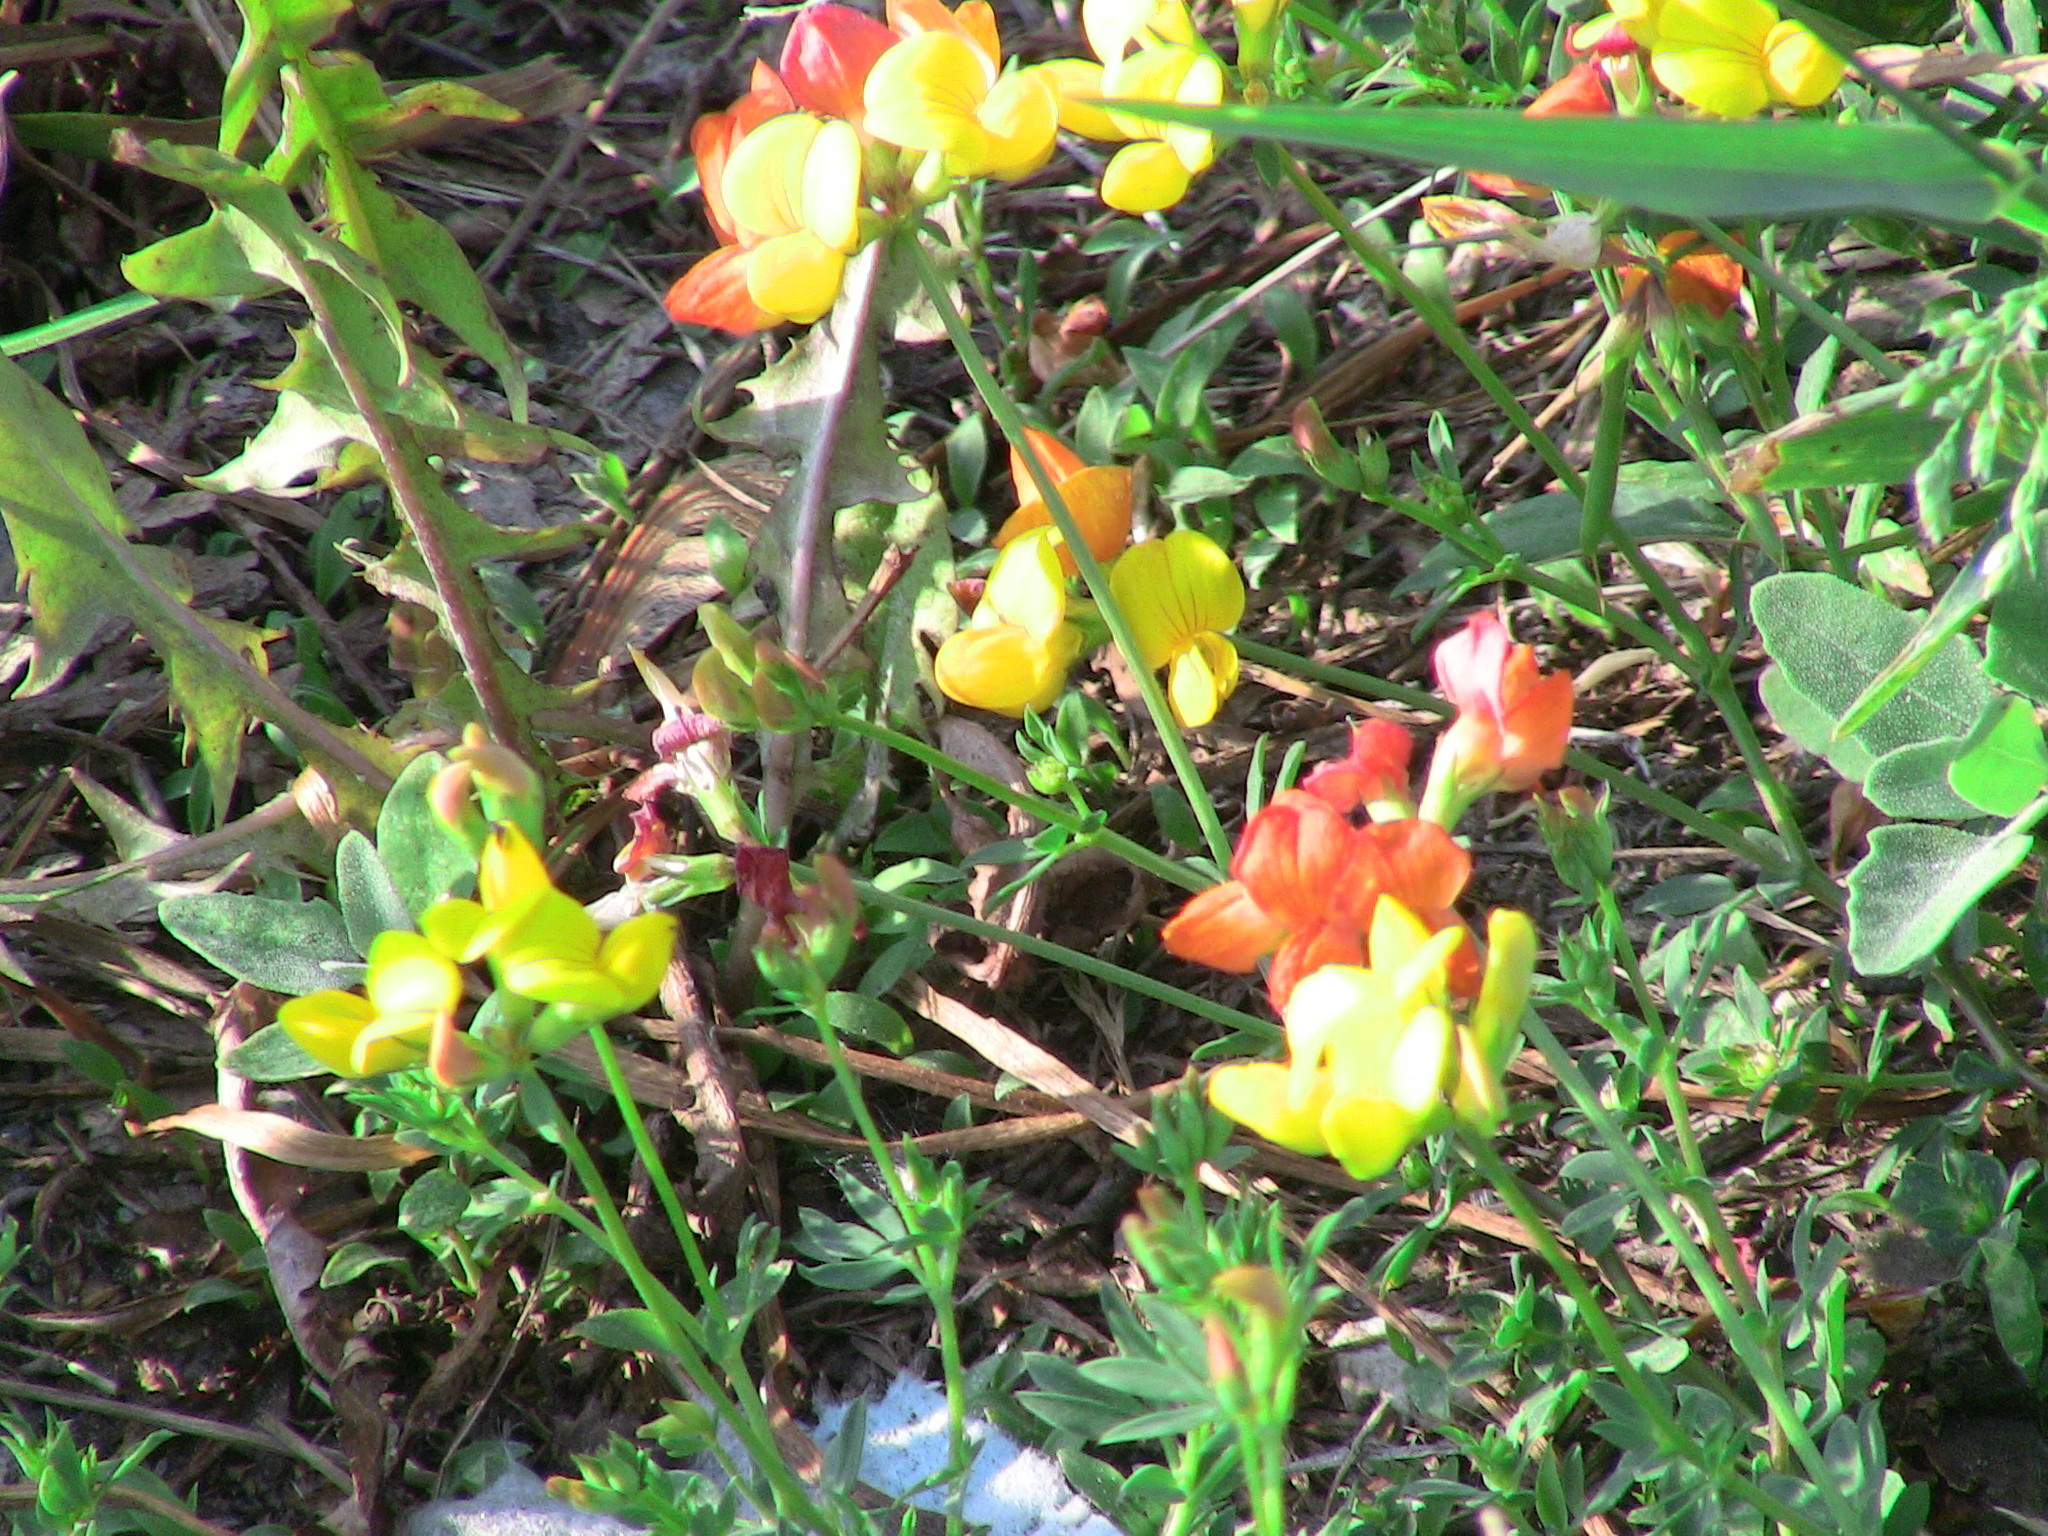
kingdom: Plantae
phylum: Tracheophyta
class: Magnoliopsida
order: Fabales
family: Fabaceae
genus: Lotus
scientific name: Lotus corniculatus
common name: Common bird's-foot-trefoil
